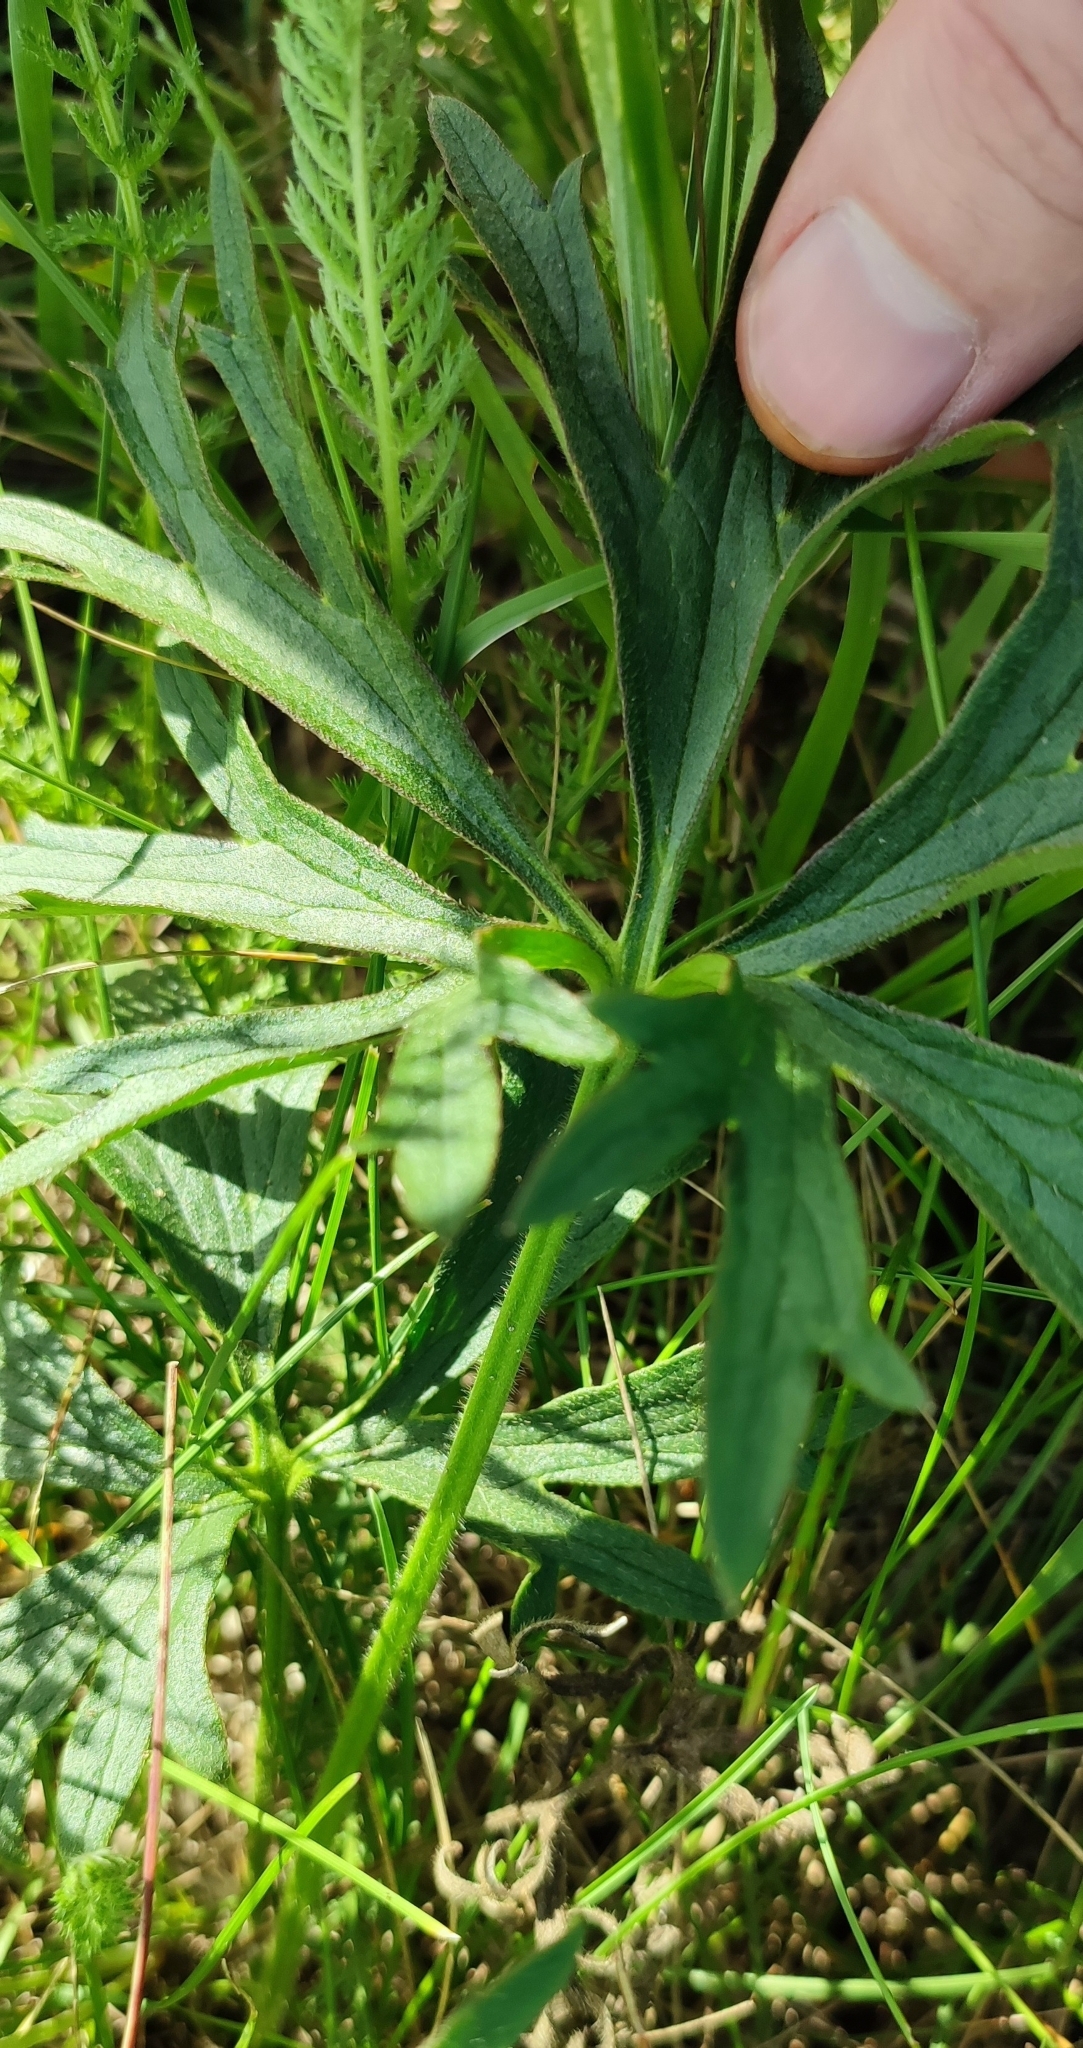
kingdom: Plantae
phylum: Tracheophyta
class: Magnoliopsida
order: Ranunculales
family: Ranunculaceae
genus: Ranunculus
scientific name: Ranunculus polyanthemos
